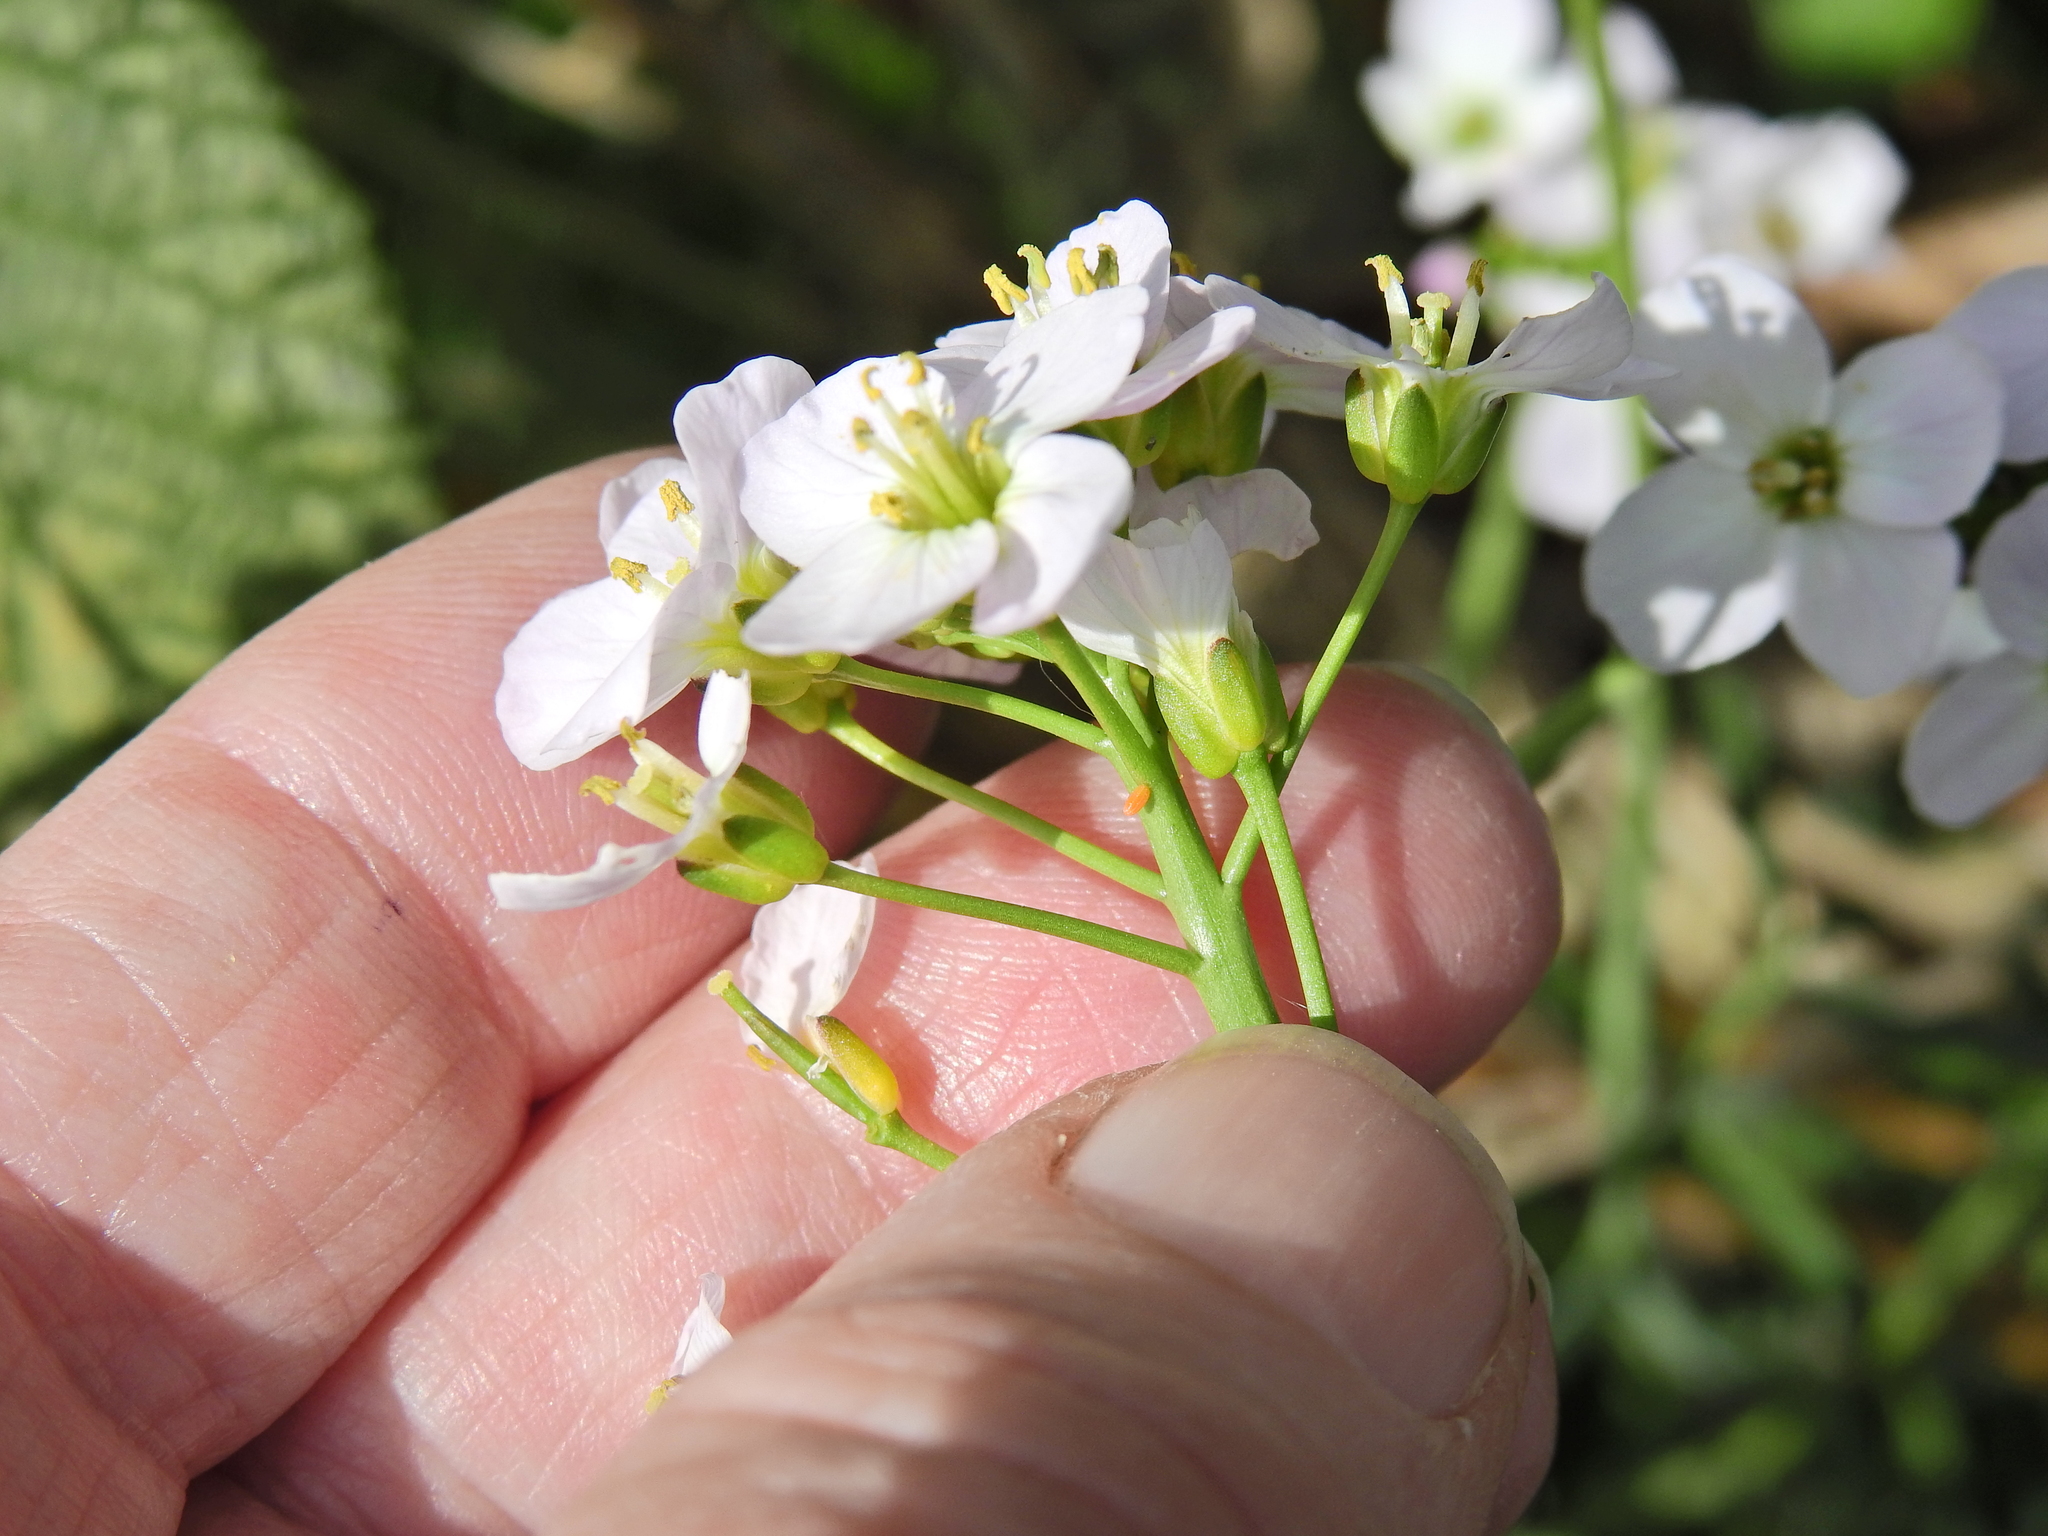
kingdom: Animalia
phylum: Arthropoda
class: Insecta
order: Lepidoptera
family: Pieridae
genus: Anthocharis
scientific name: Anthocharis cardamines
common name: Orange-tip
